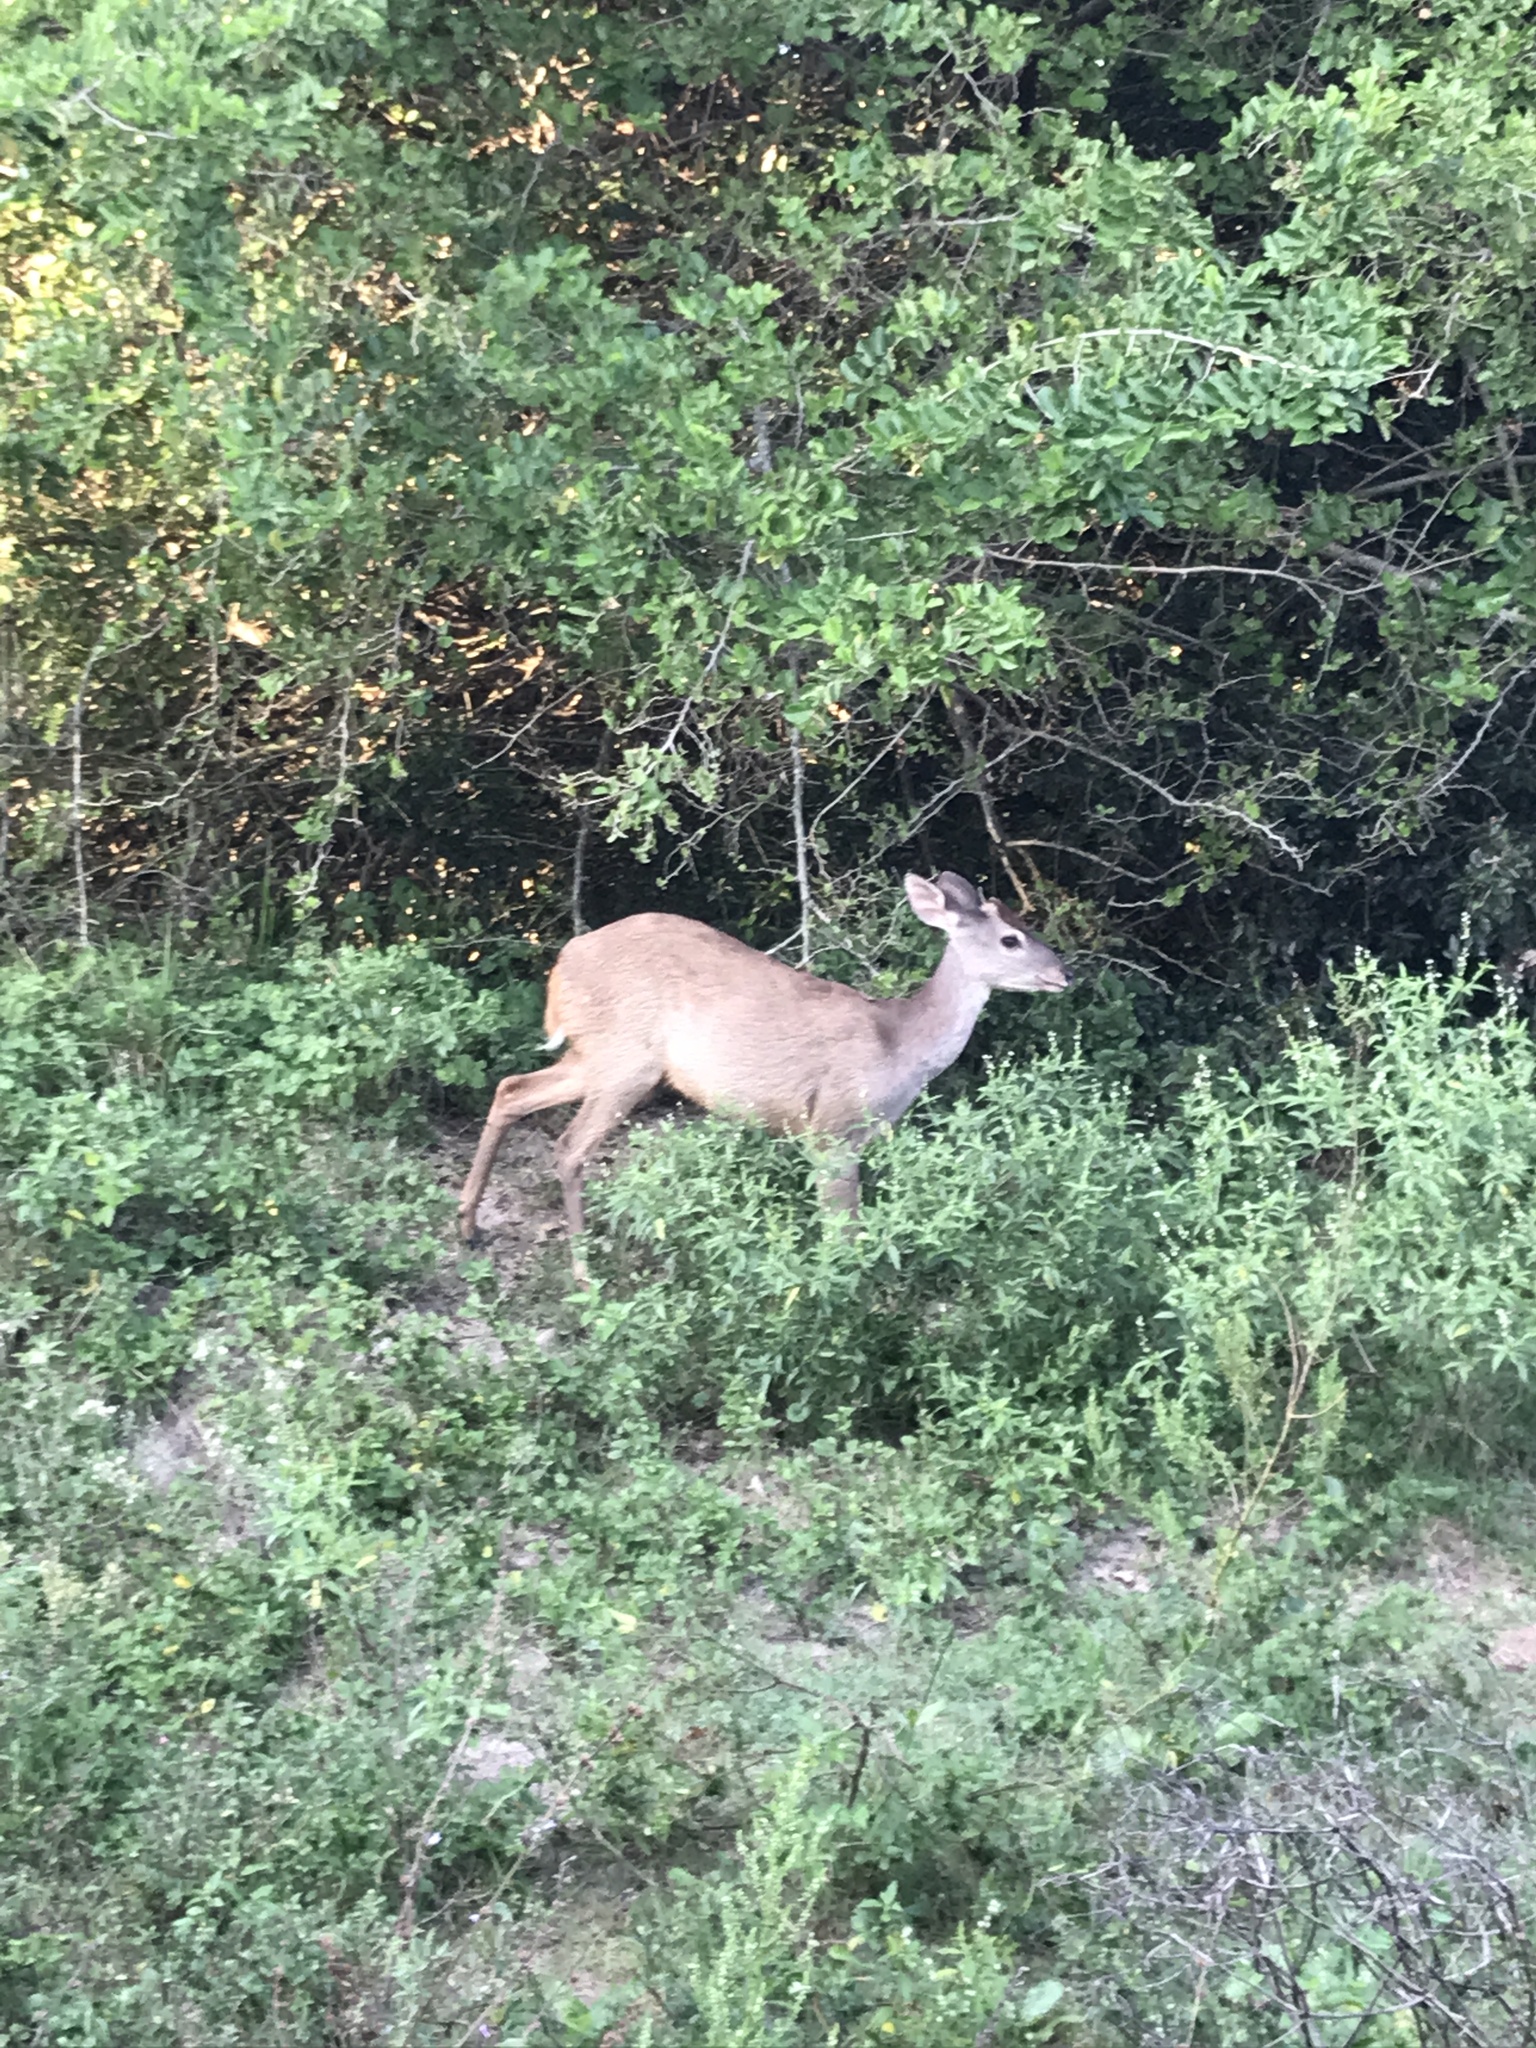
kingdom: Animalia
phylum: Chordata
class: Mammalia
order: Artiodactyla
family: Cervidae
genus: Mazama
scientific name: Mazama gouazoubira
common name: Gray brocket
